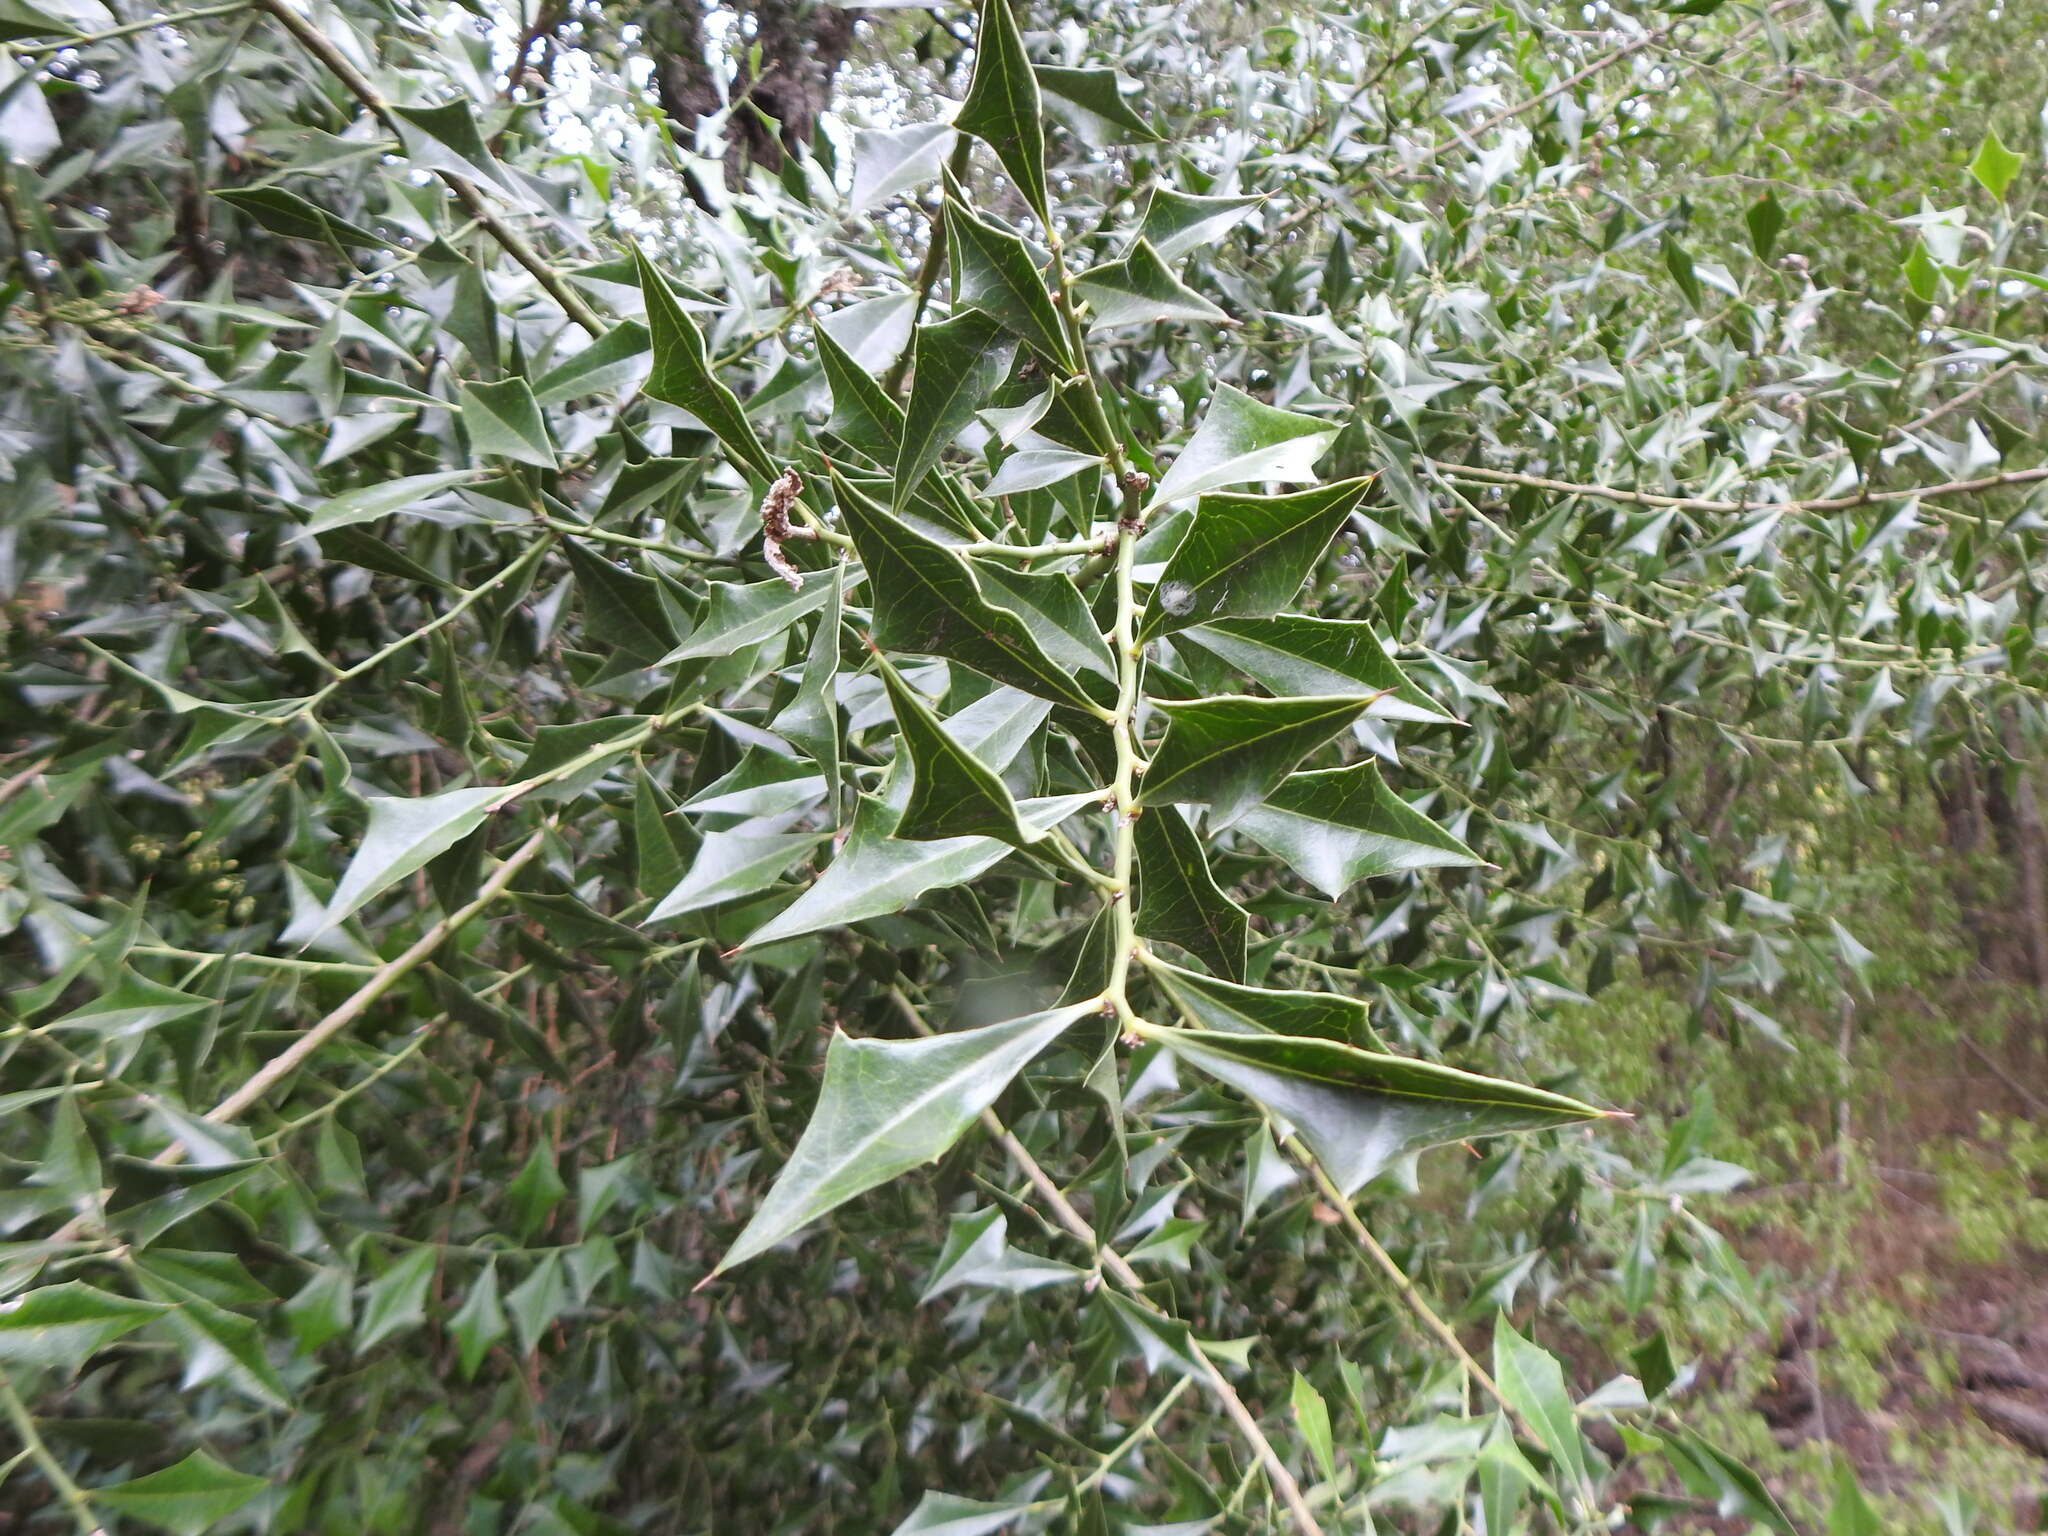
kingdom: Plantae
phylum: Tracheophyta
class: Magnoliopsida
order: Santalales
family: Cervantesiaceae
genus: Jodina
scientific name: Jodina rhombifolia
